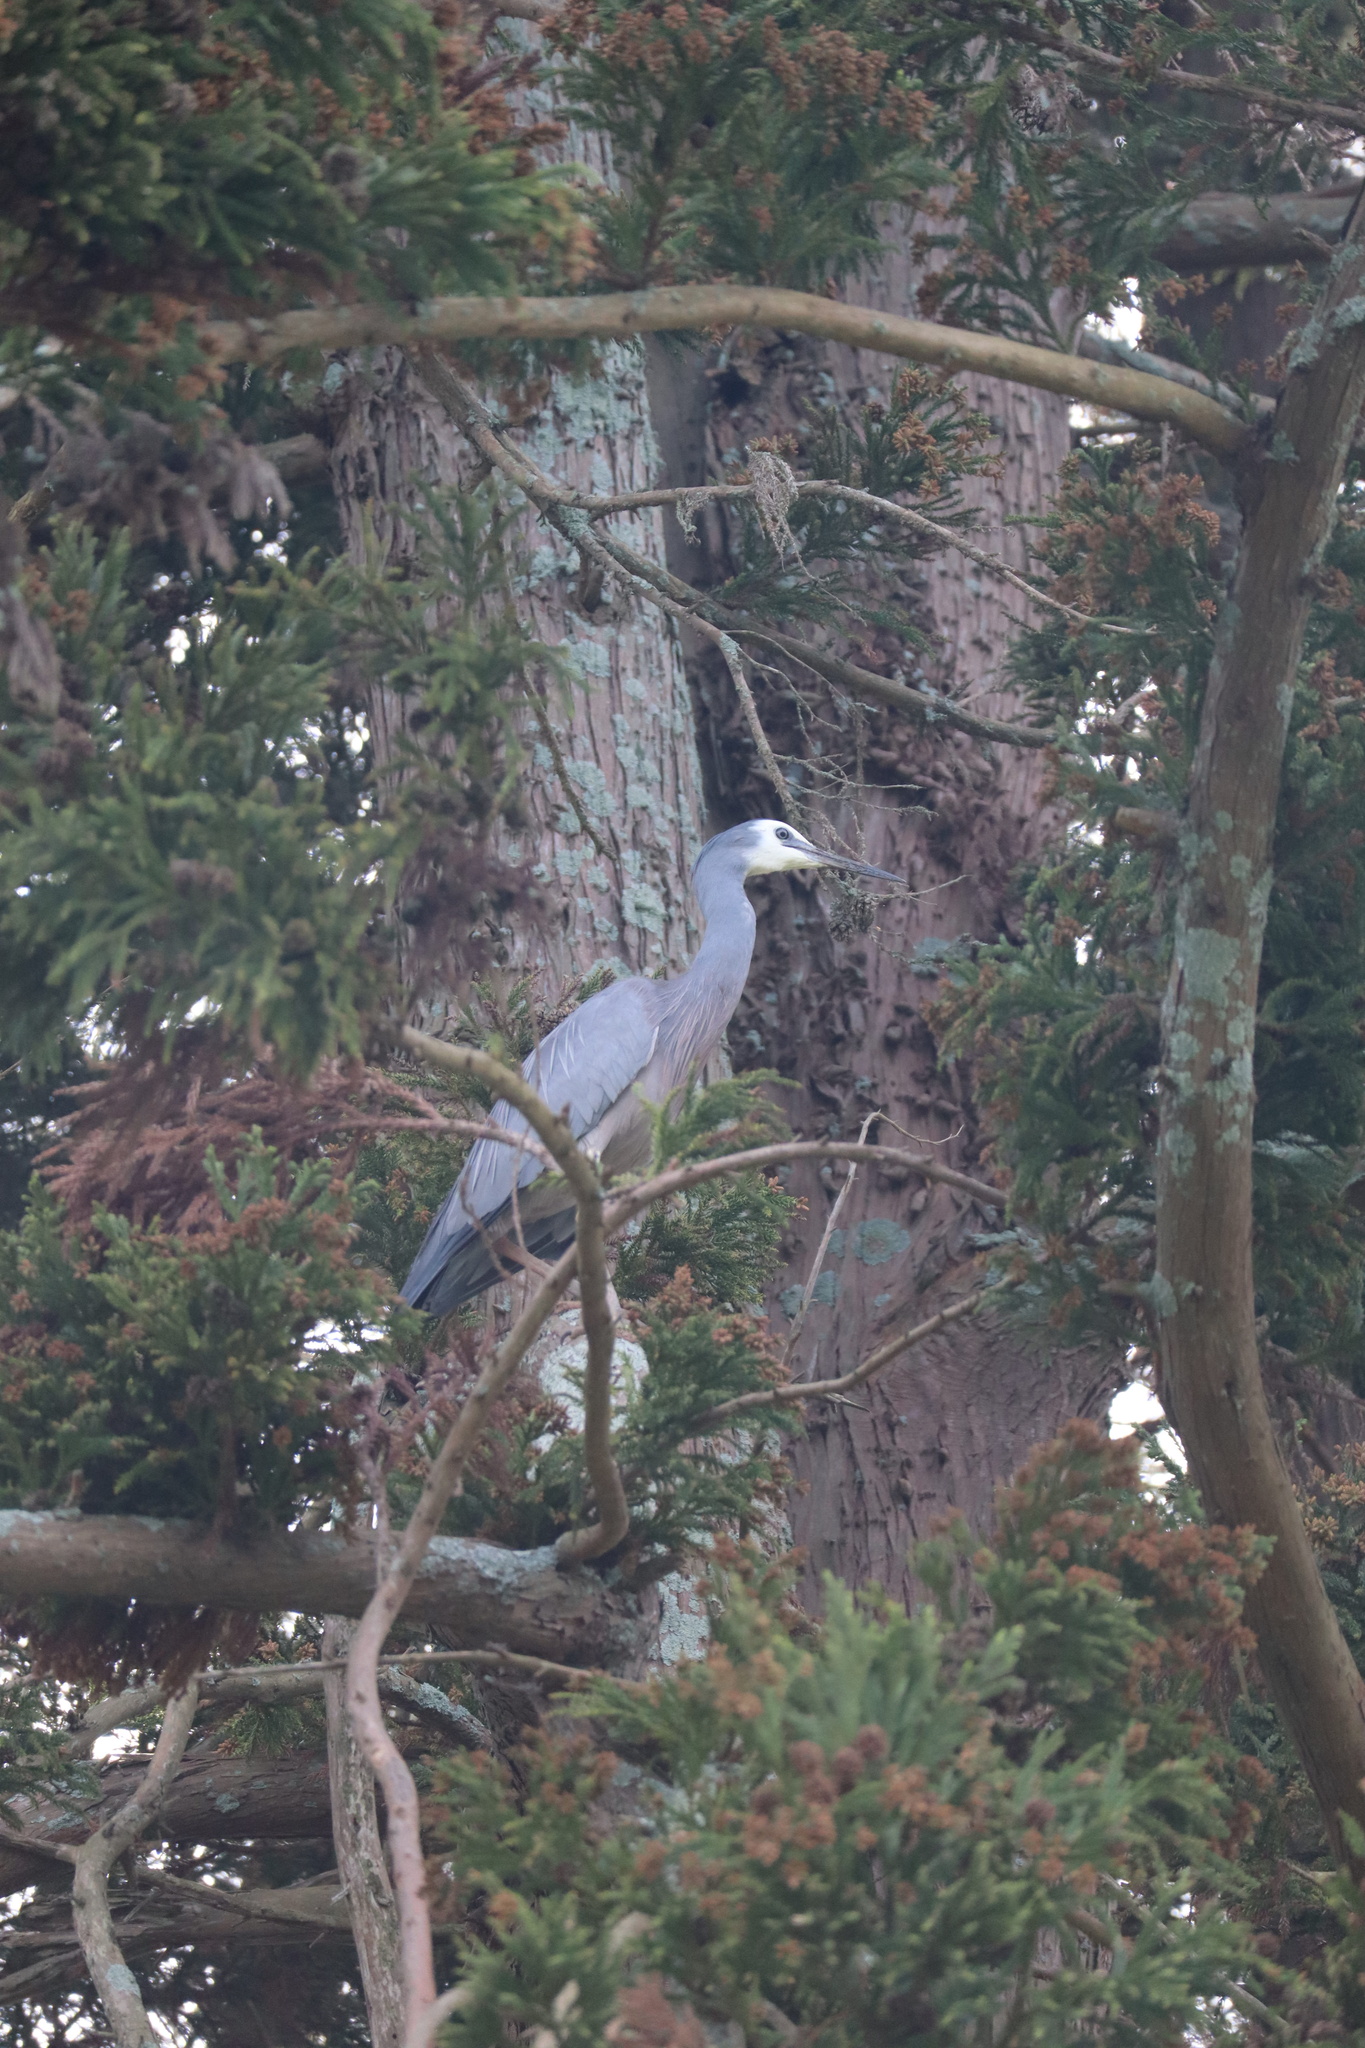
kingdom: Animalia
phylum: Chordata
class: Aves
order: Pelecaniformes
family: Ardeidae
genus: Egretta
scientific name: Egretta novaehollandiae
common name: White-faced heron
